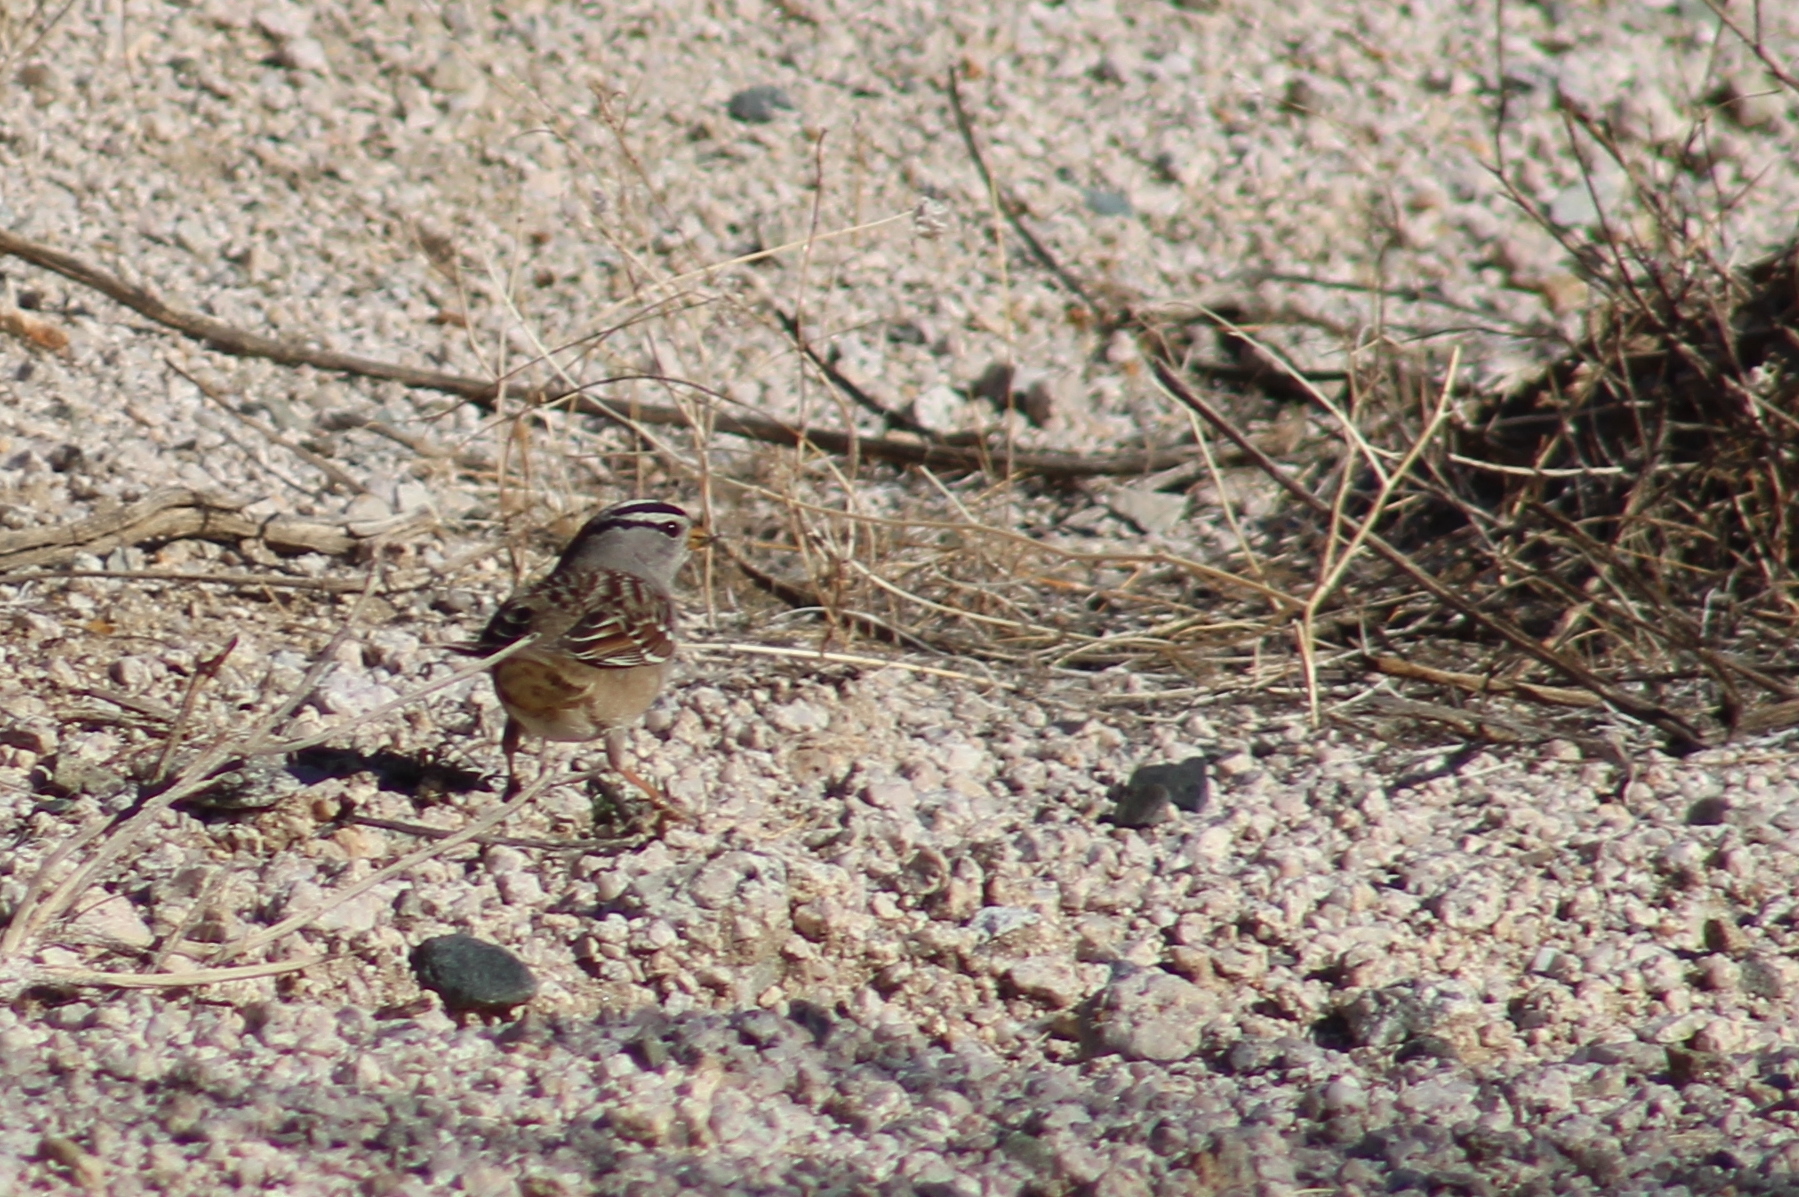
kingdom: Animalia
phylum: Chordata
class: Aves
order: Passeriformes
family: Passerellidae
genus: Zonotrichia
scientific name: Zonotrichia leucophrys
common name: White-crowned sparrow
